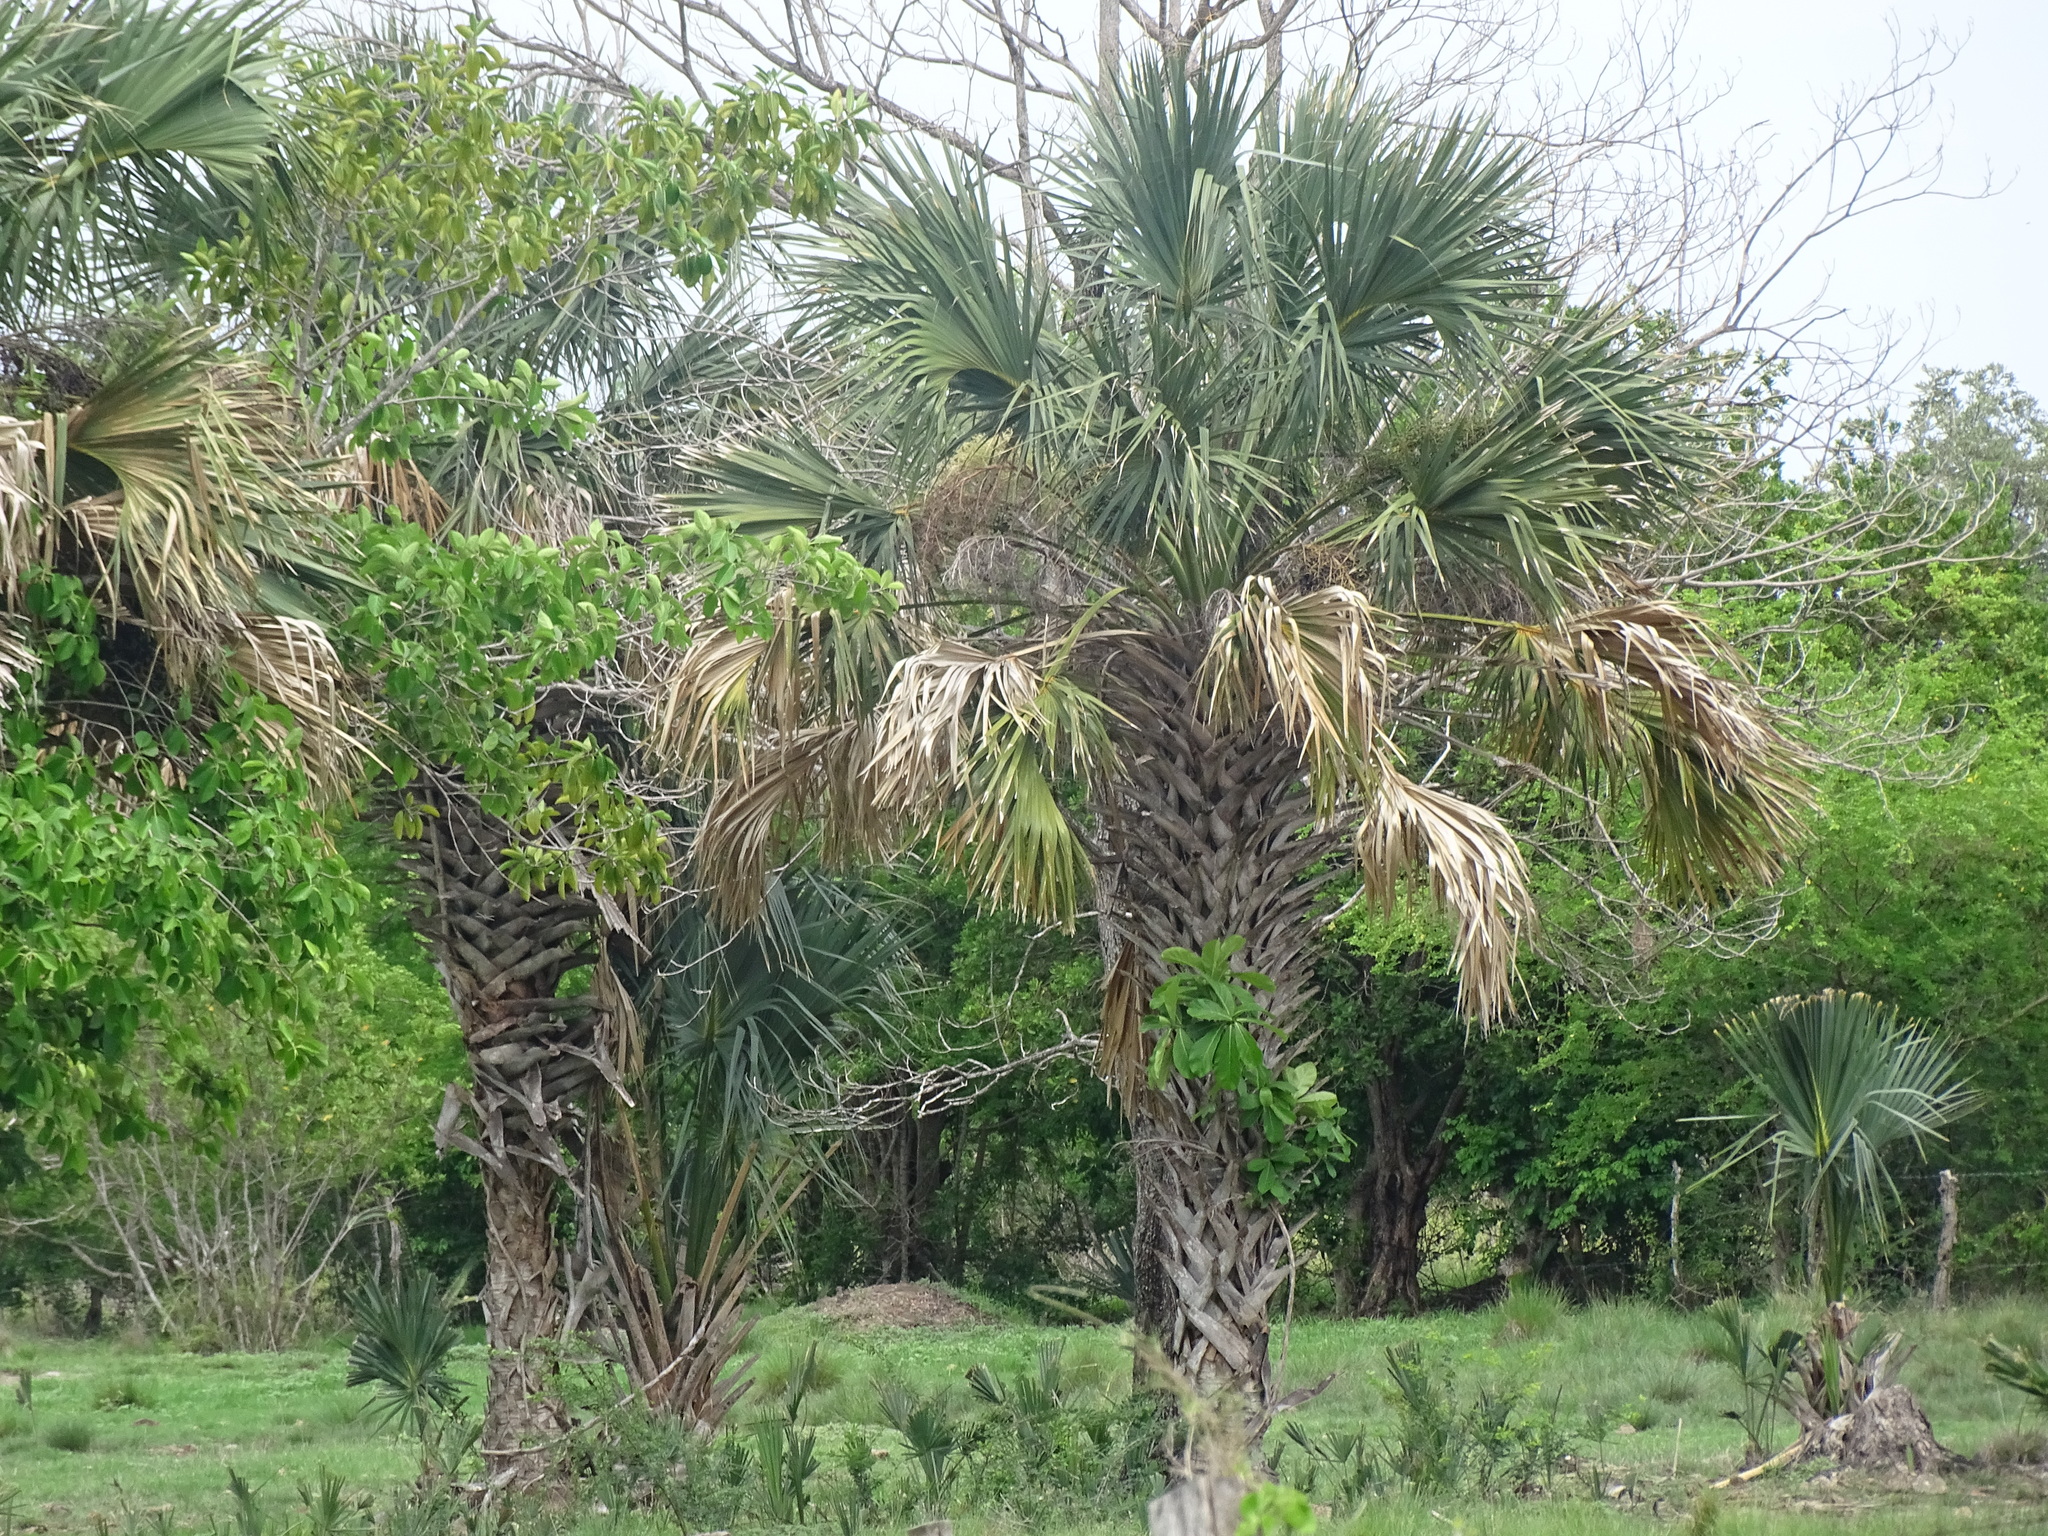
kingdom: Plantae
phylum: Tracheophyta
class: Liliopsida
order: Arecales
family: Arecaceae
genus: Sabal
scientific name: Sabal mexicana
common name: Texas palmetto
